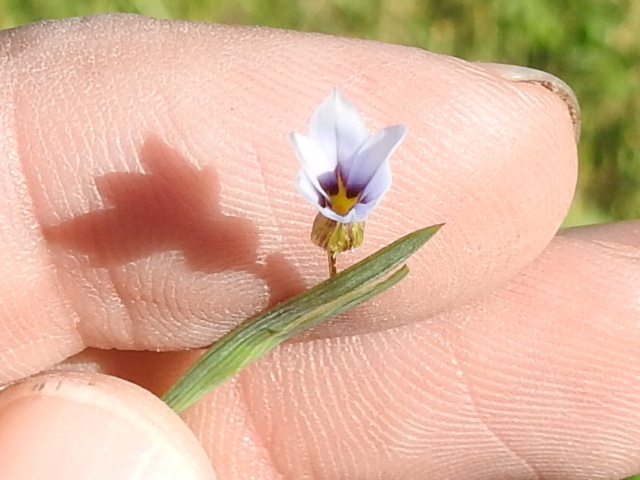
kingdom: Plantae
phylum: Tracheophyta
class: Liliopsida
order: Asparagales
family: Iridaceae
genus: Sisyrinchium
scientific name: Sisyrinchium micranthum
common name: Bermuda pigroot
